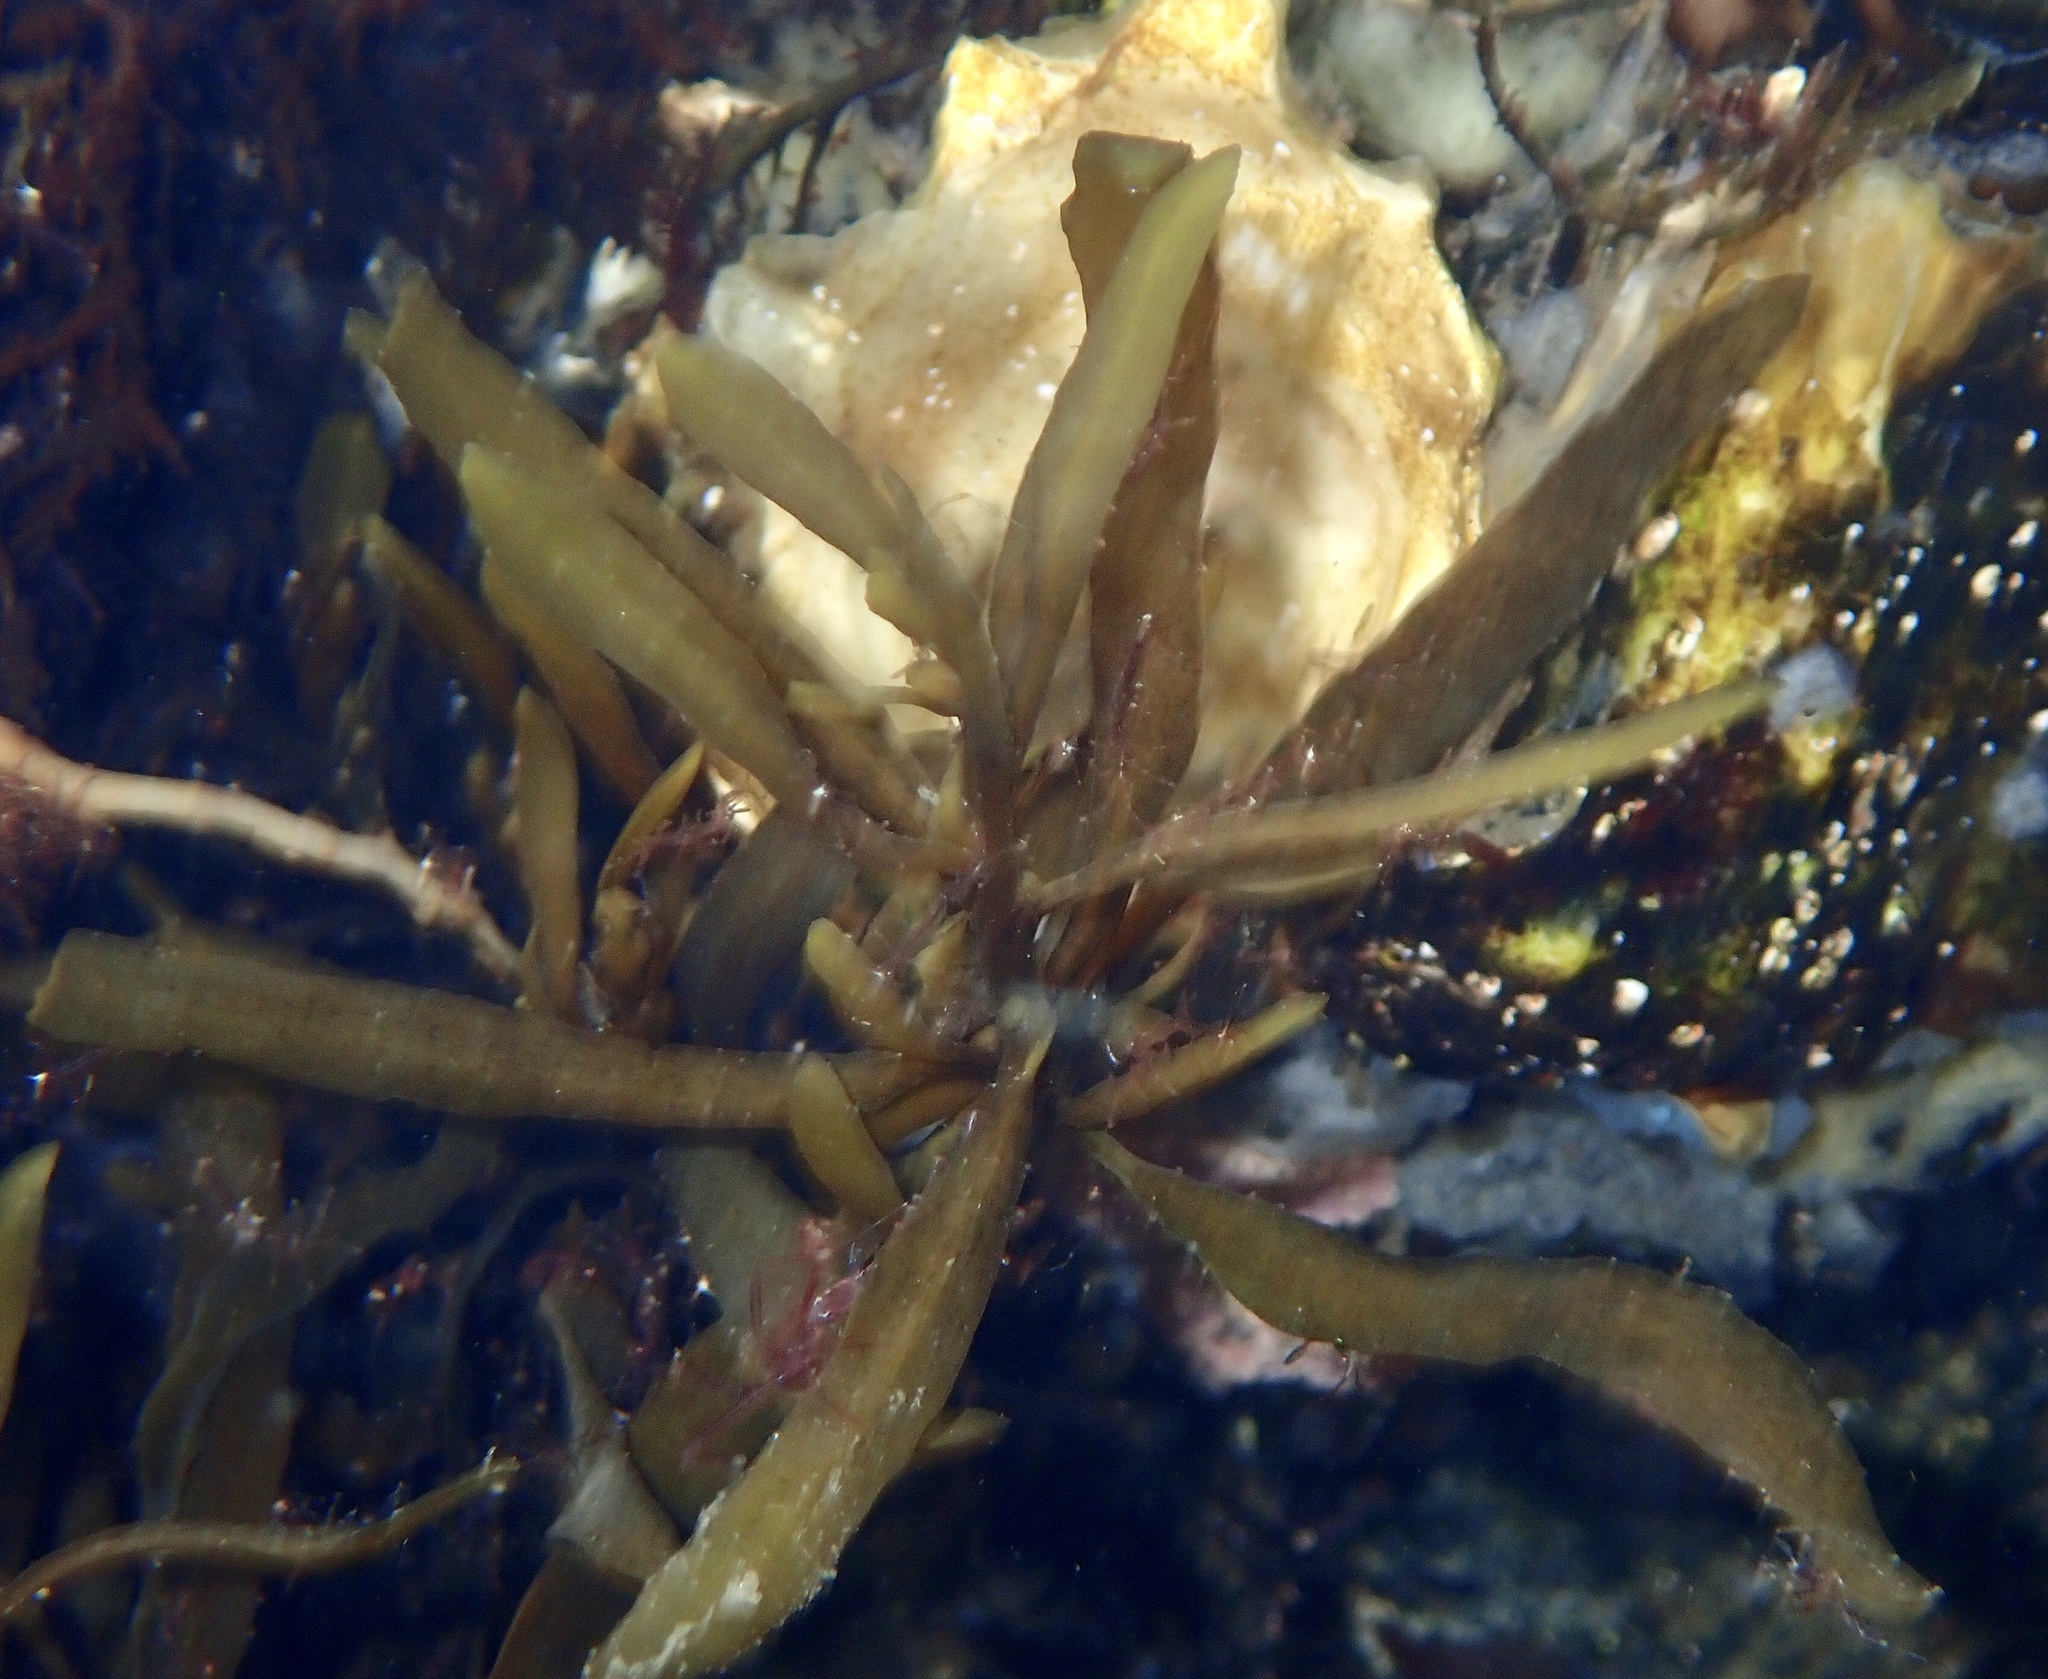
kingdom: Chromista
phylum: Ochrophyta
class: Phaeophyceae
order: Fucales
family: Sargassaceae
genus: Sargassum
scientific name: Sargassum muticum
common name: Japweed
